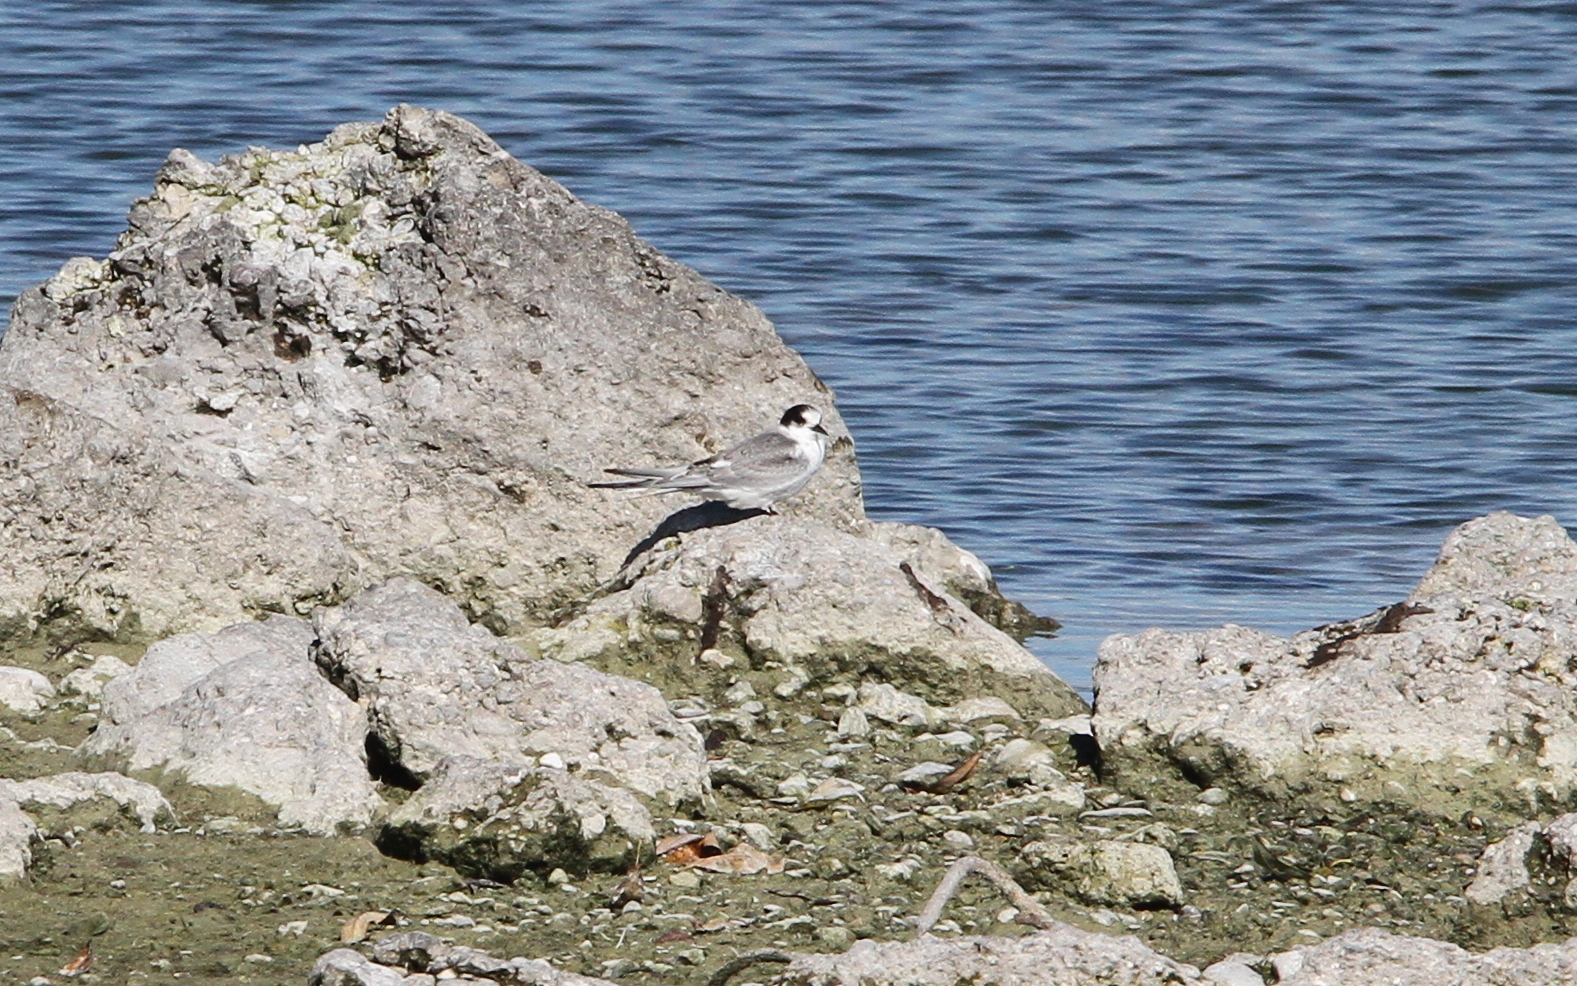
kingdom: Animalia
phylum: Chordata
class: Aves
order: Charadriiformes
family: Laridae
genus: Sterna
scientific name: Sterna paradisaea
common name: Arctic tern
